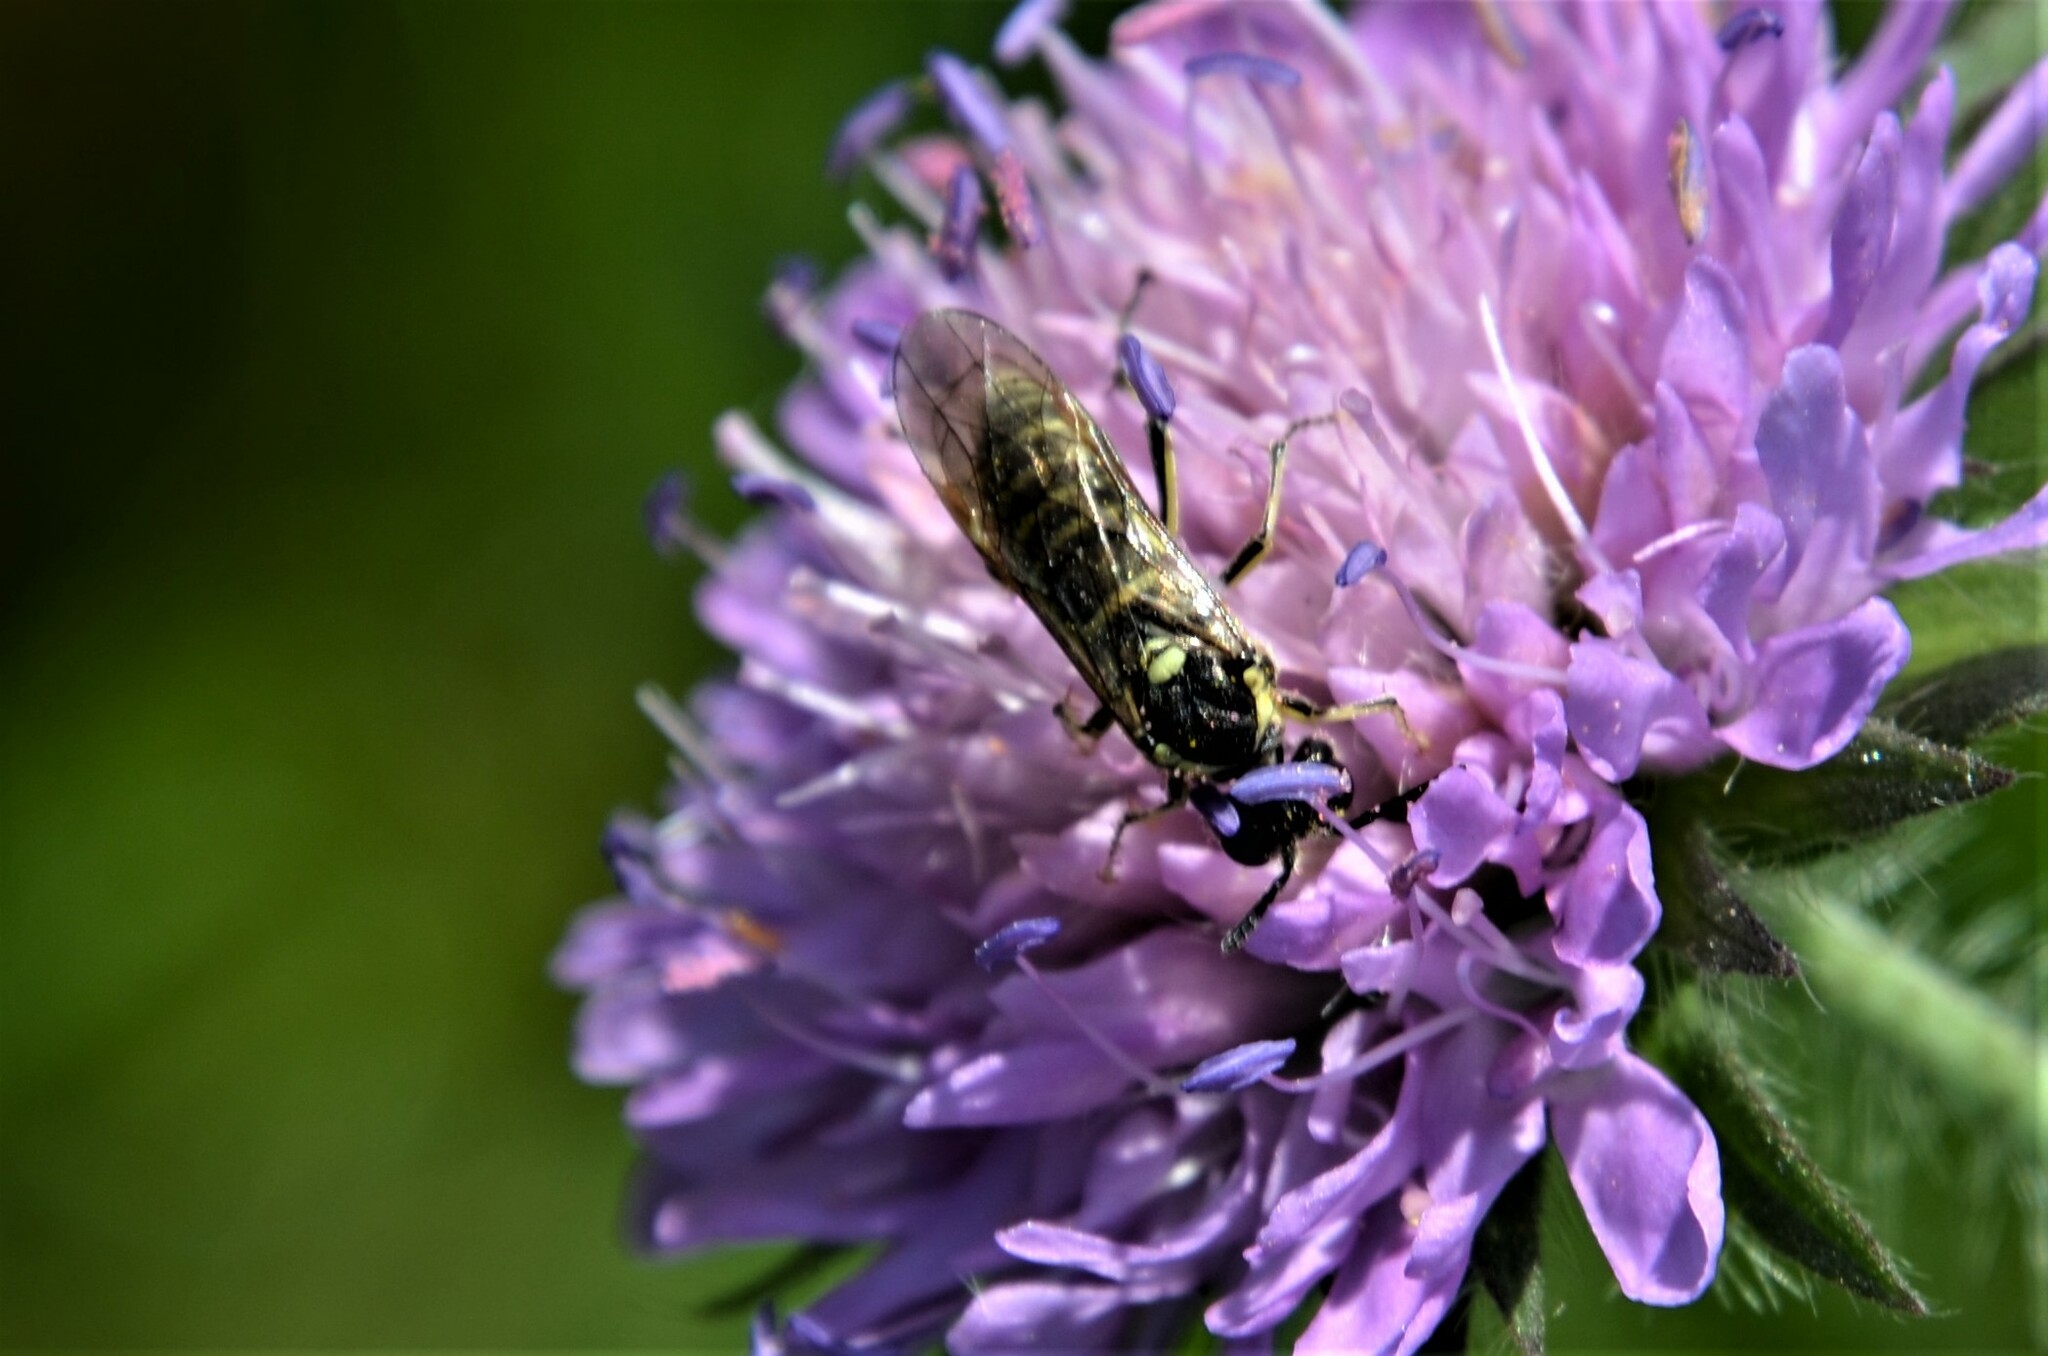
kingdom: Animalia
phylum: Arthropoda
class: Insecta
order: Hymenoptera
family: Tenthredinidae
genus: Tenthredo
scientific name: Tenthredo arcuata
